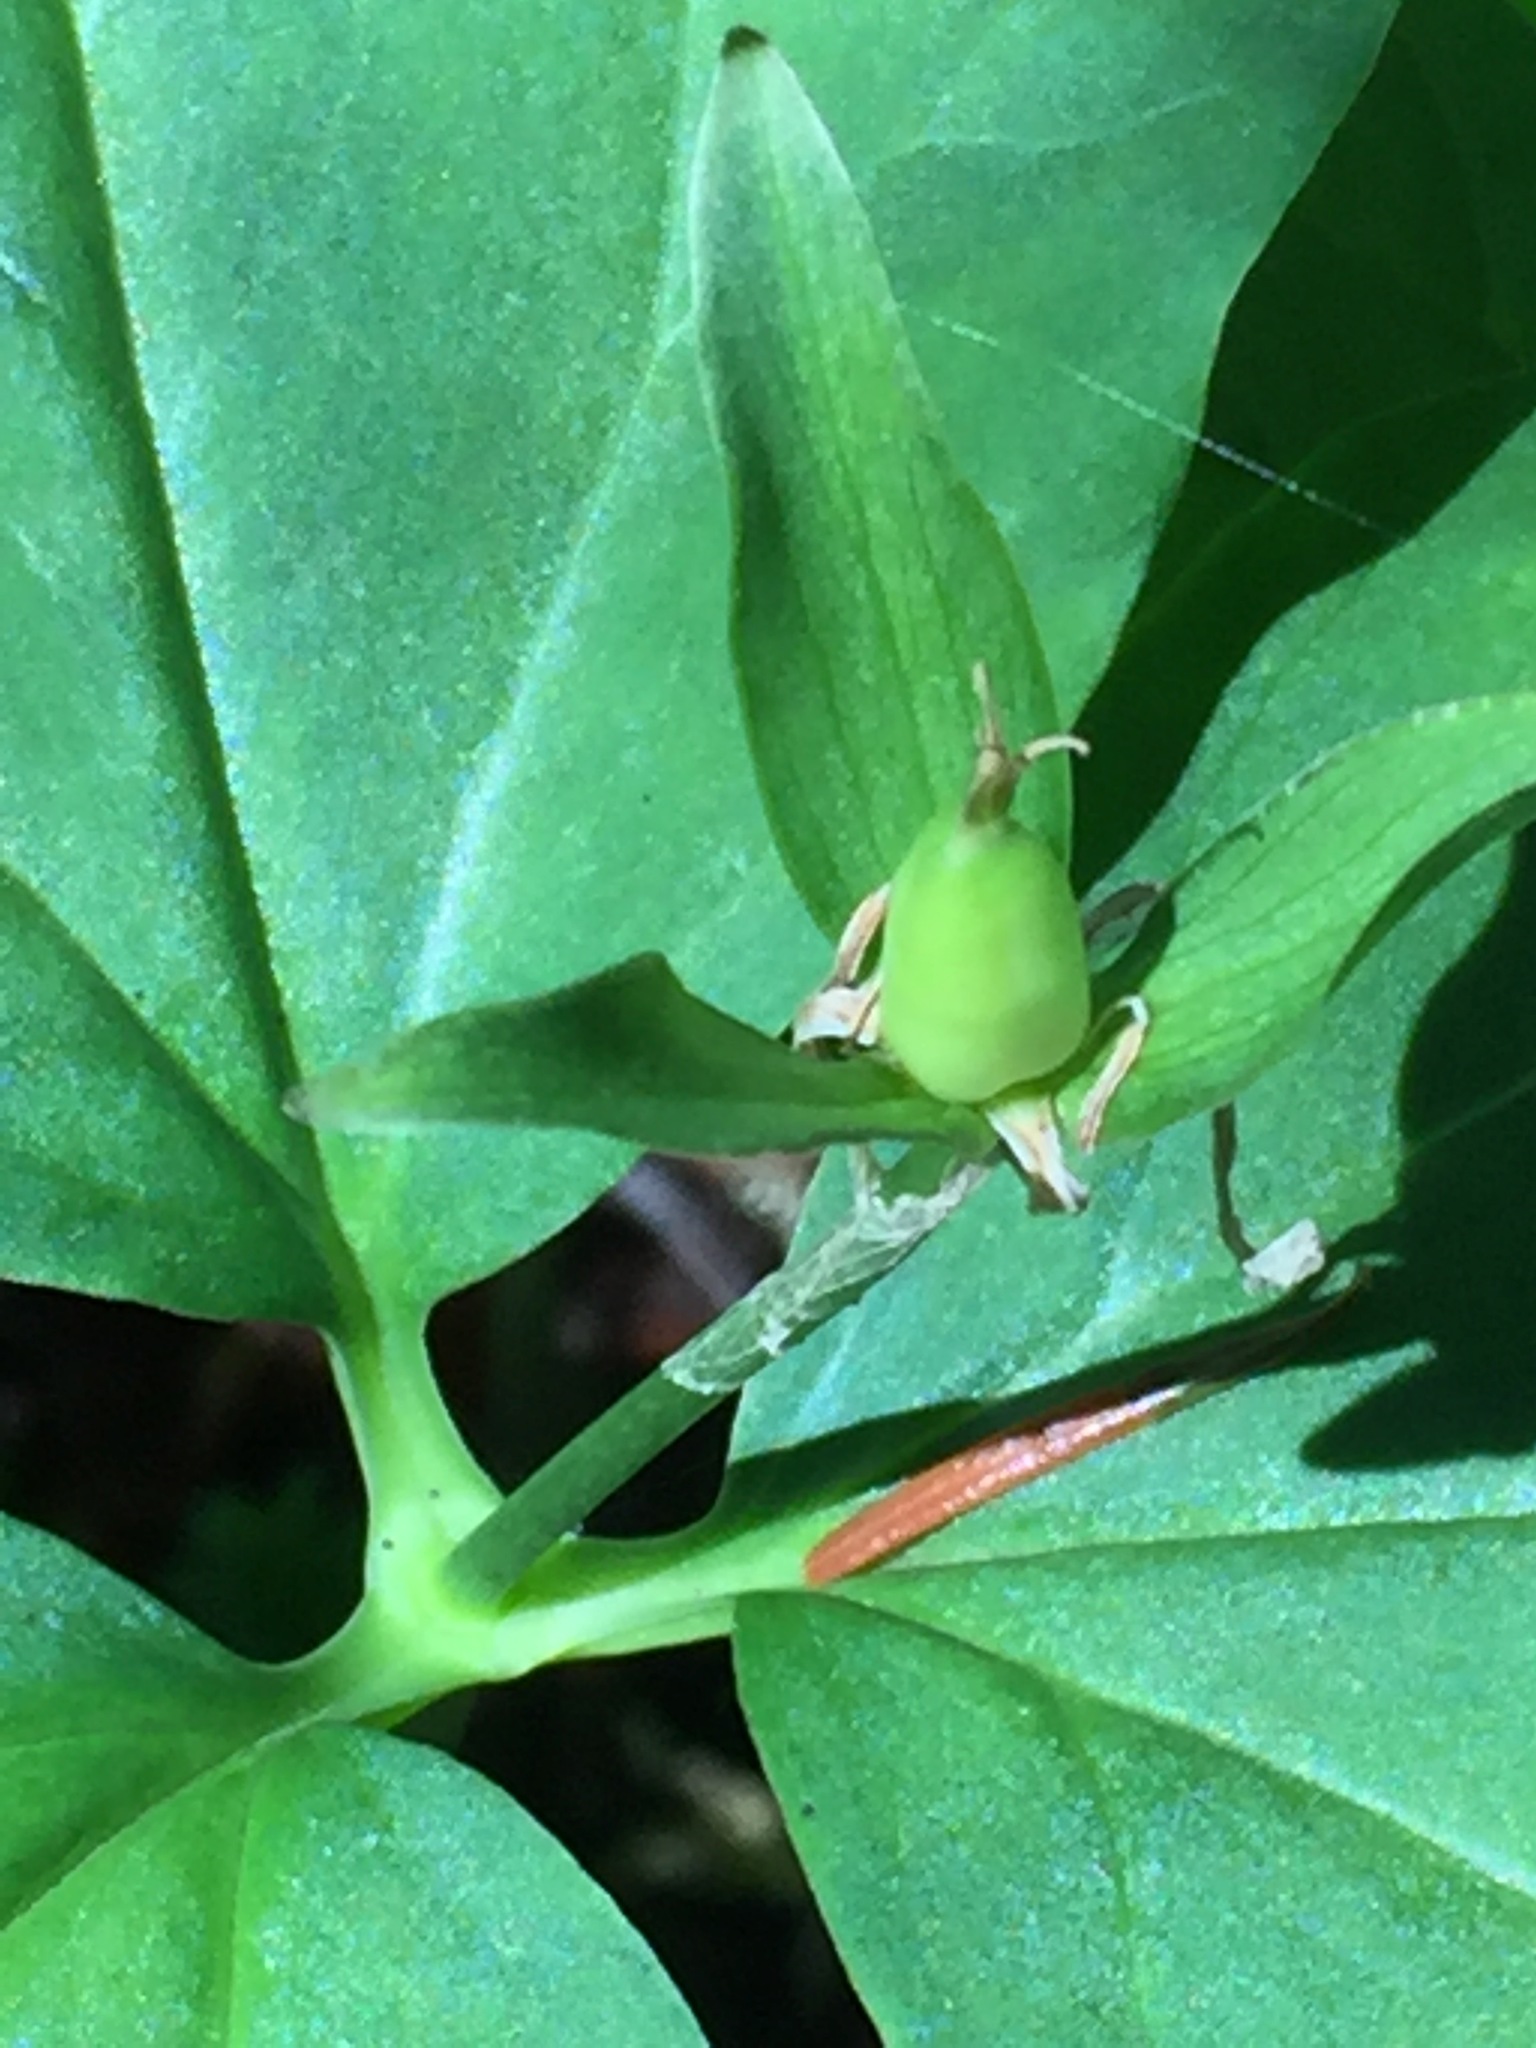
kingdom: Plantae
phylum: Tracheophyta
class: Liliopsida
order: Liliales
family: Melanthiaceae
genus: Trillium
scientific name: Trillium undulatum
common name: Paint trillium
